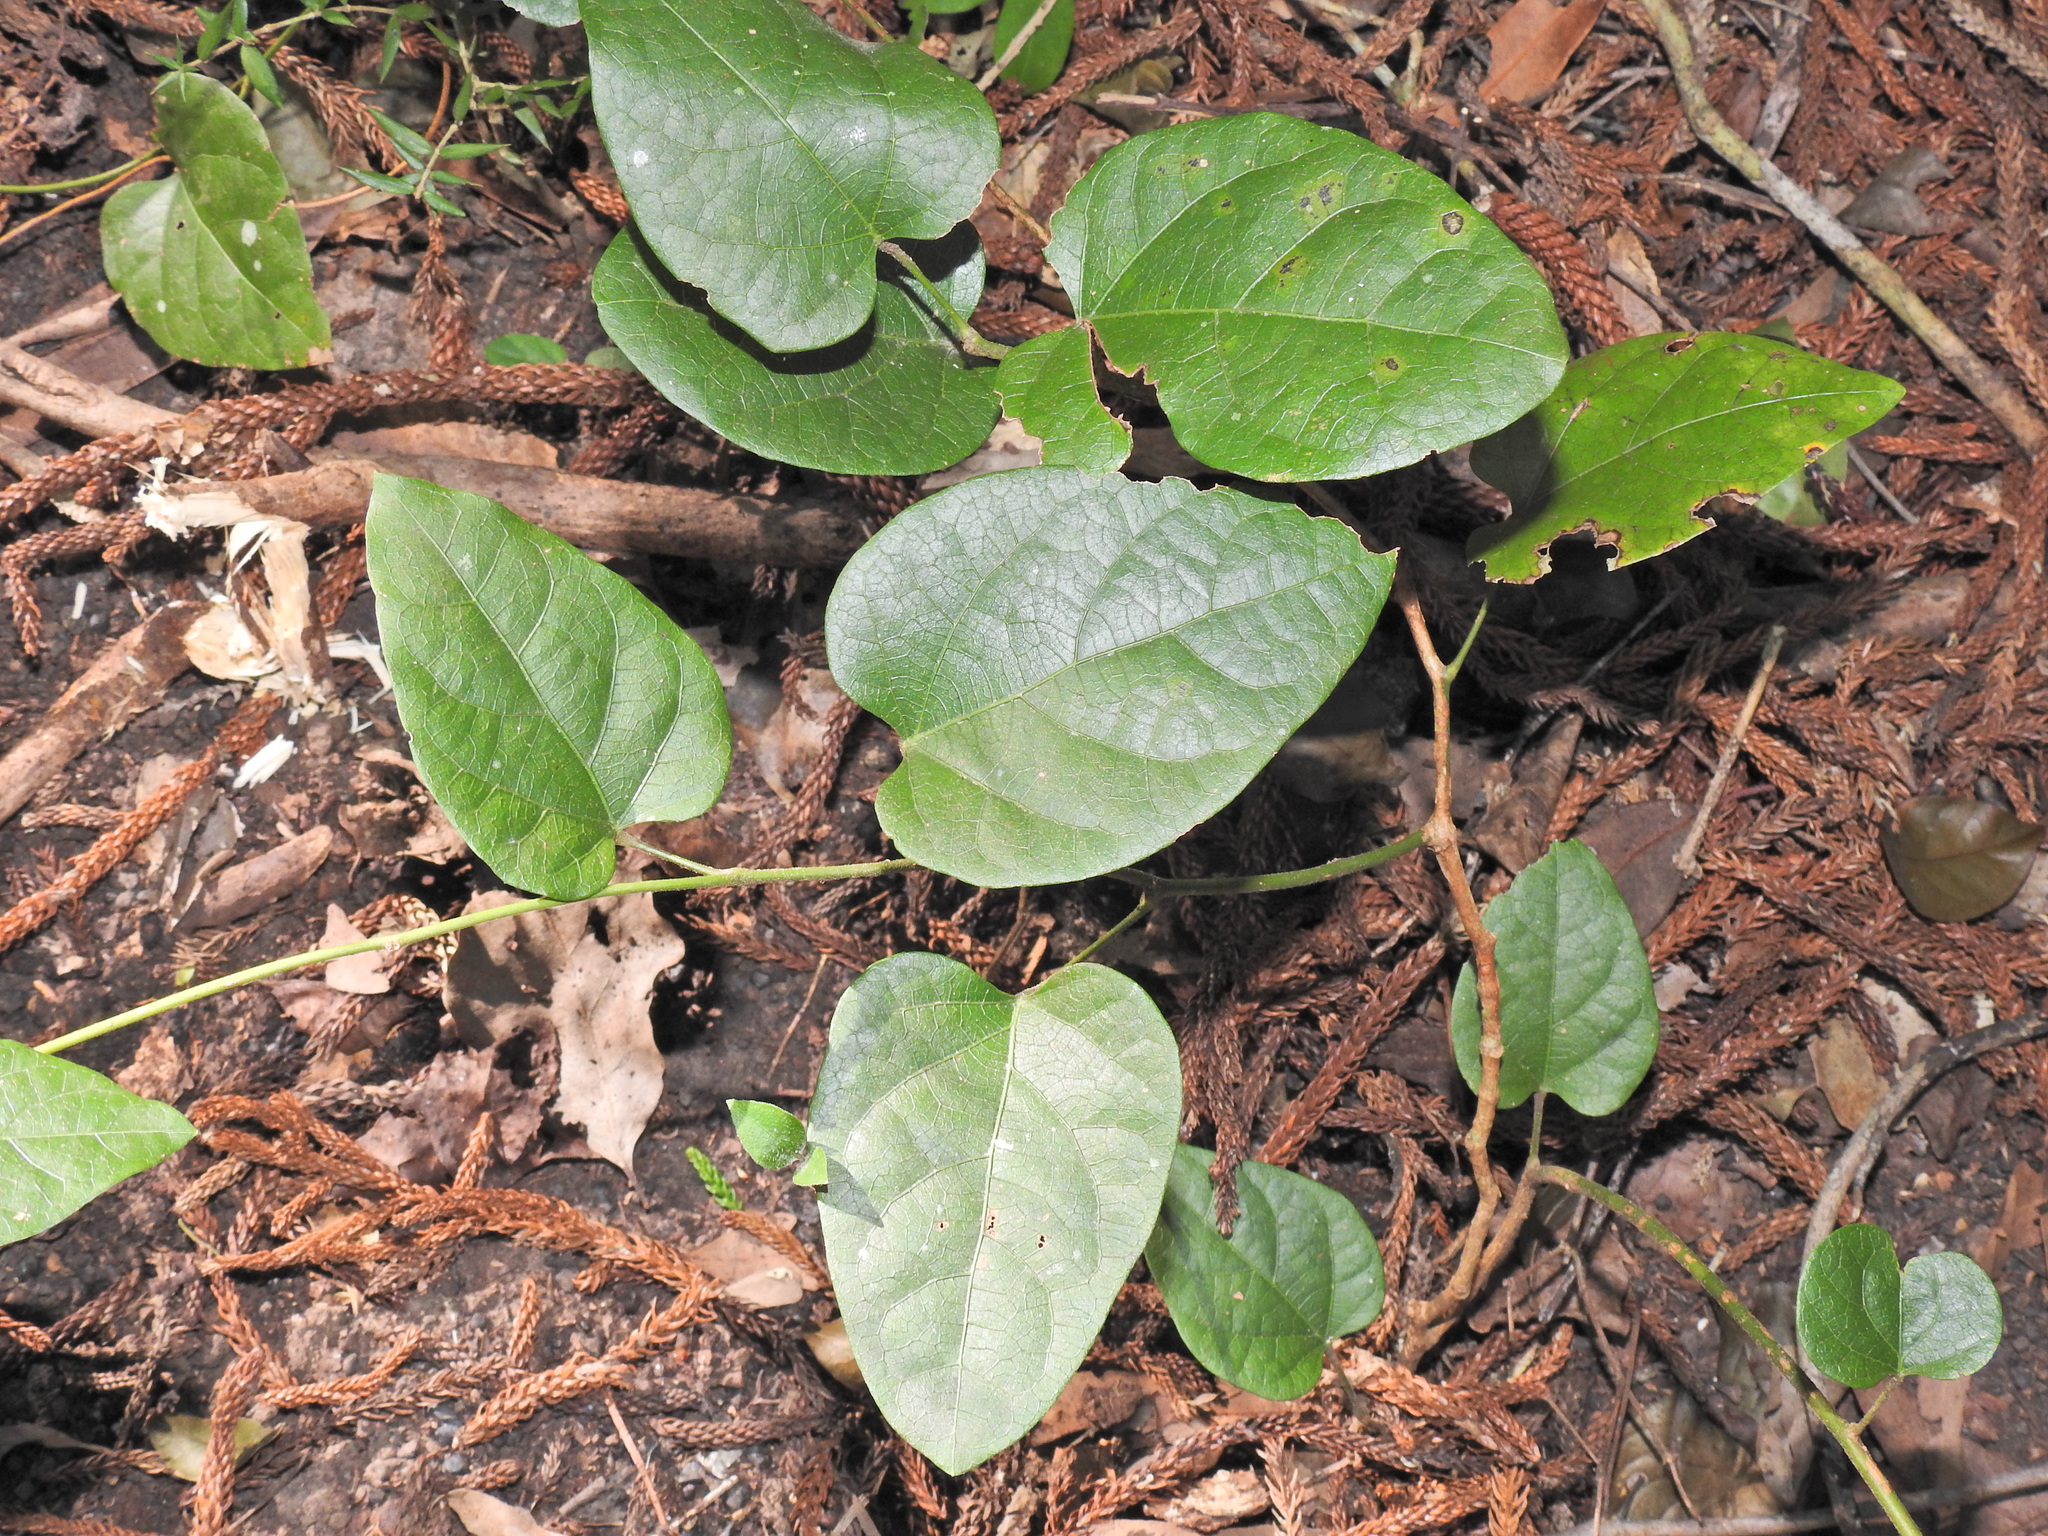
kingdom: Plantae
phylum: Tracheophyta
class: Magnoliopsida
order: Ranunculales
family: Menispermaceae
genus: Pleogyne
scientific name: Pleogyne australis
